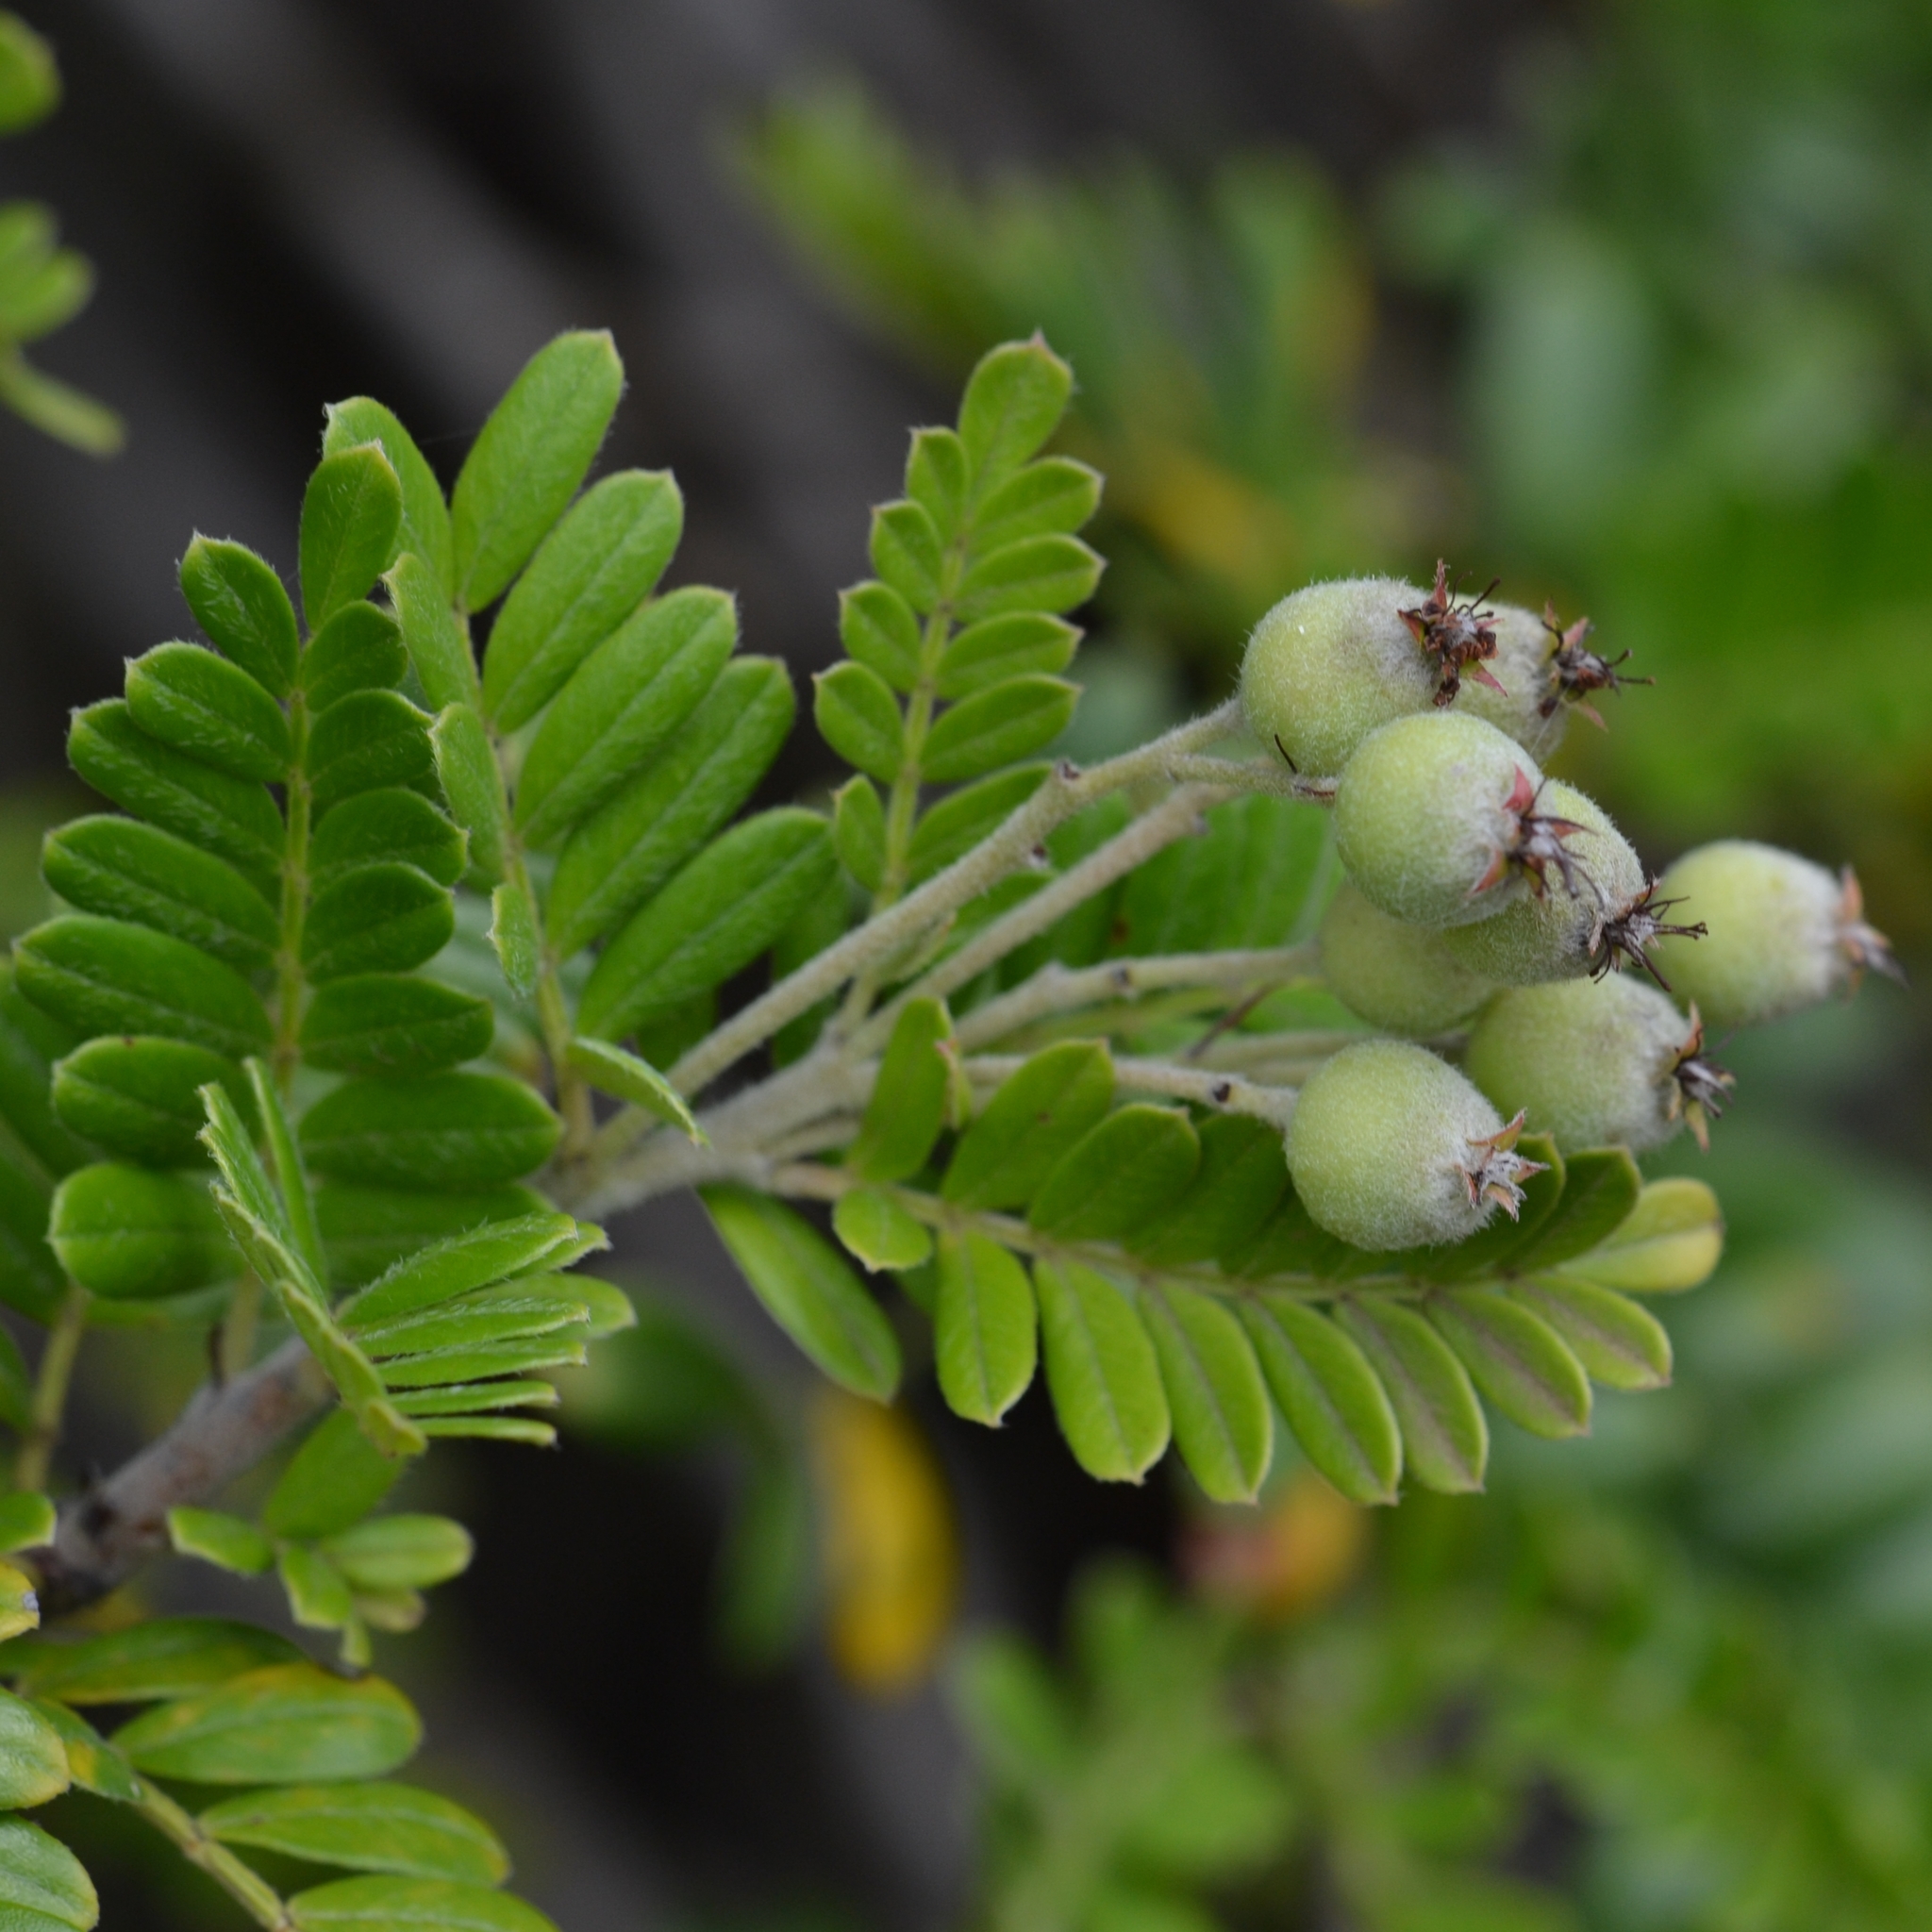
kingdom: Plantae
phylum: Tracheophyta
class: Magnoliopsida
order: Rosales
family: Rosaceae
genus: Osteomeles
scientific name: Osteomeles anthyllidifolia
